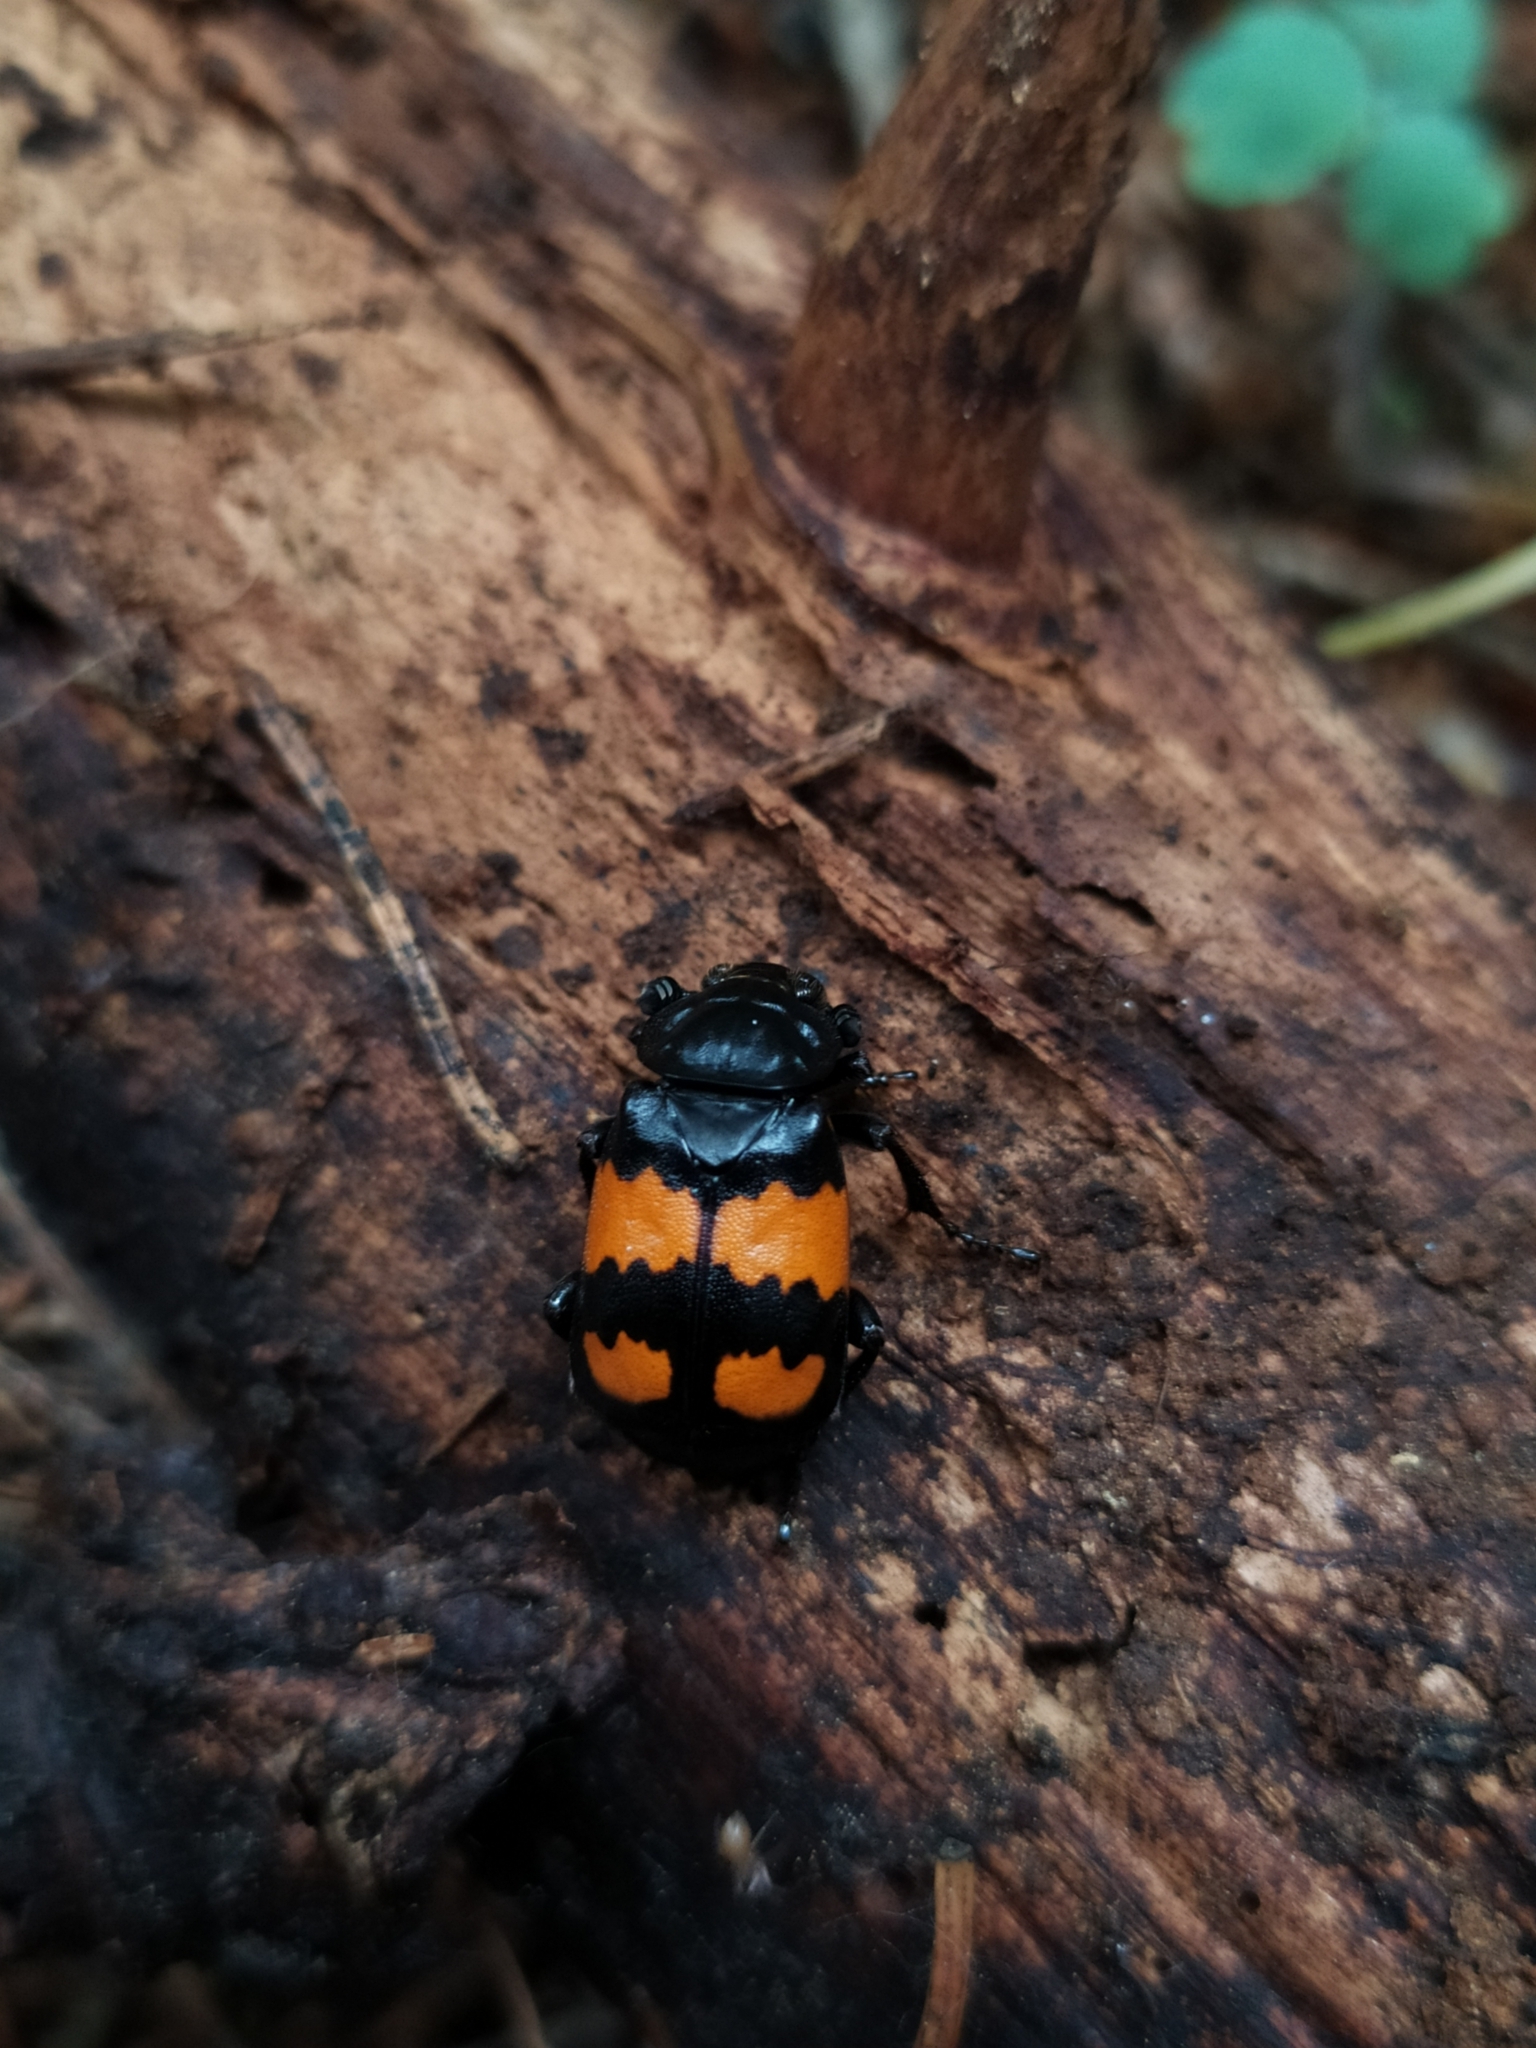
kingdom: Animalia
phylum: Arthropoda
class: Insecta
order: Coleoptera
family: Staphylinidae
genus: Nicrophorus
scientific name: Nicrophorus vespilloides
